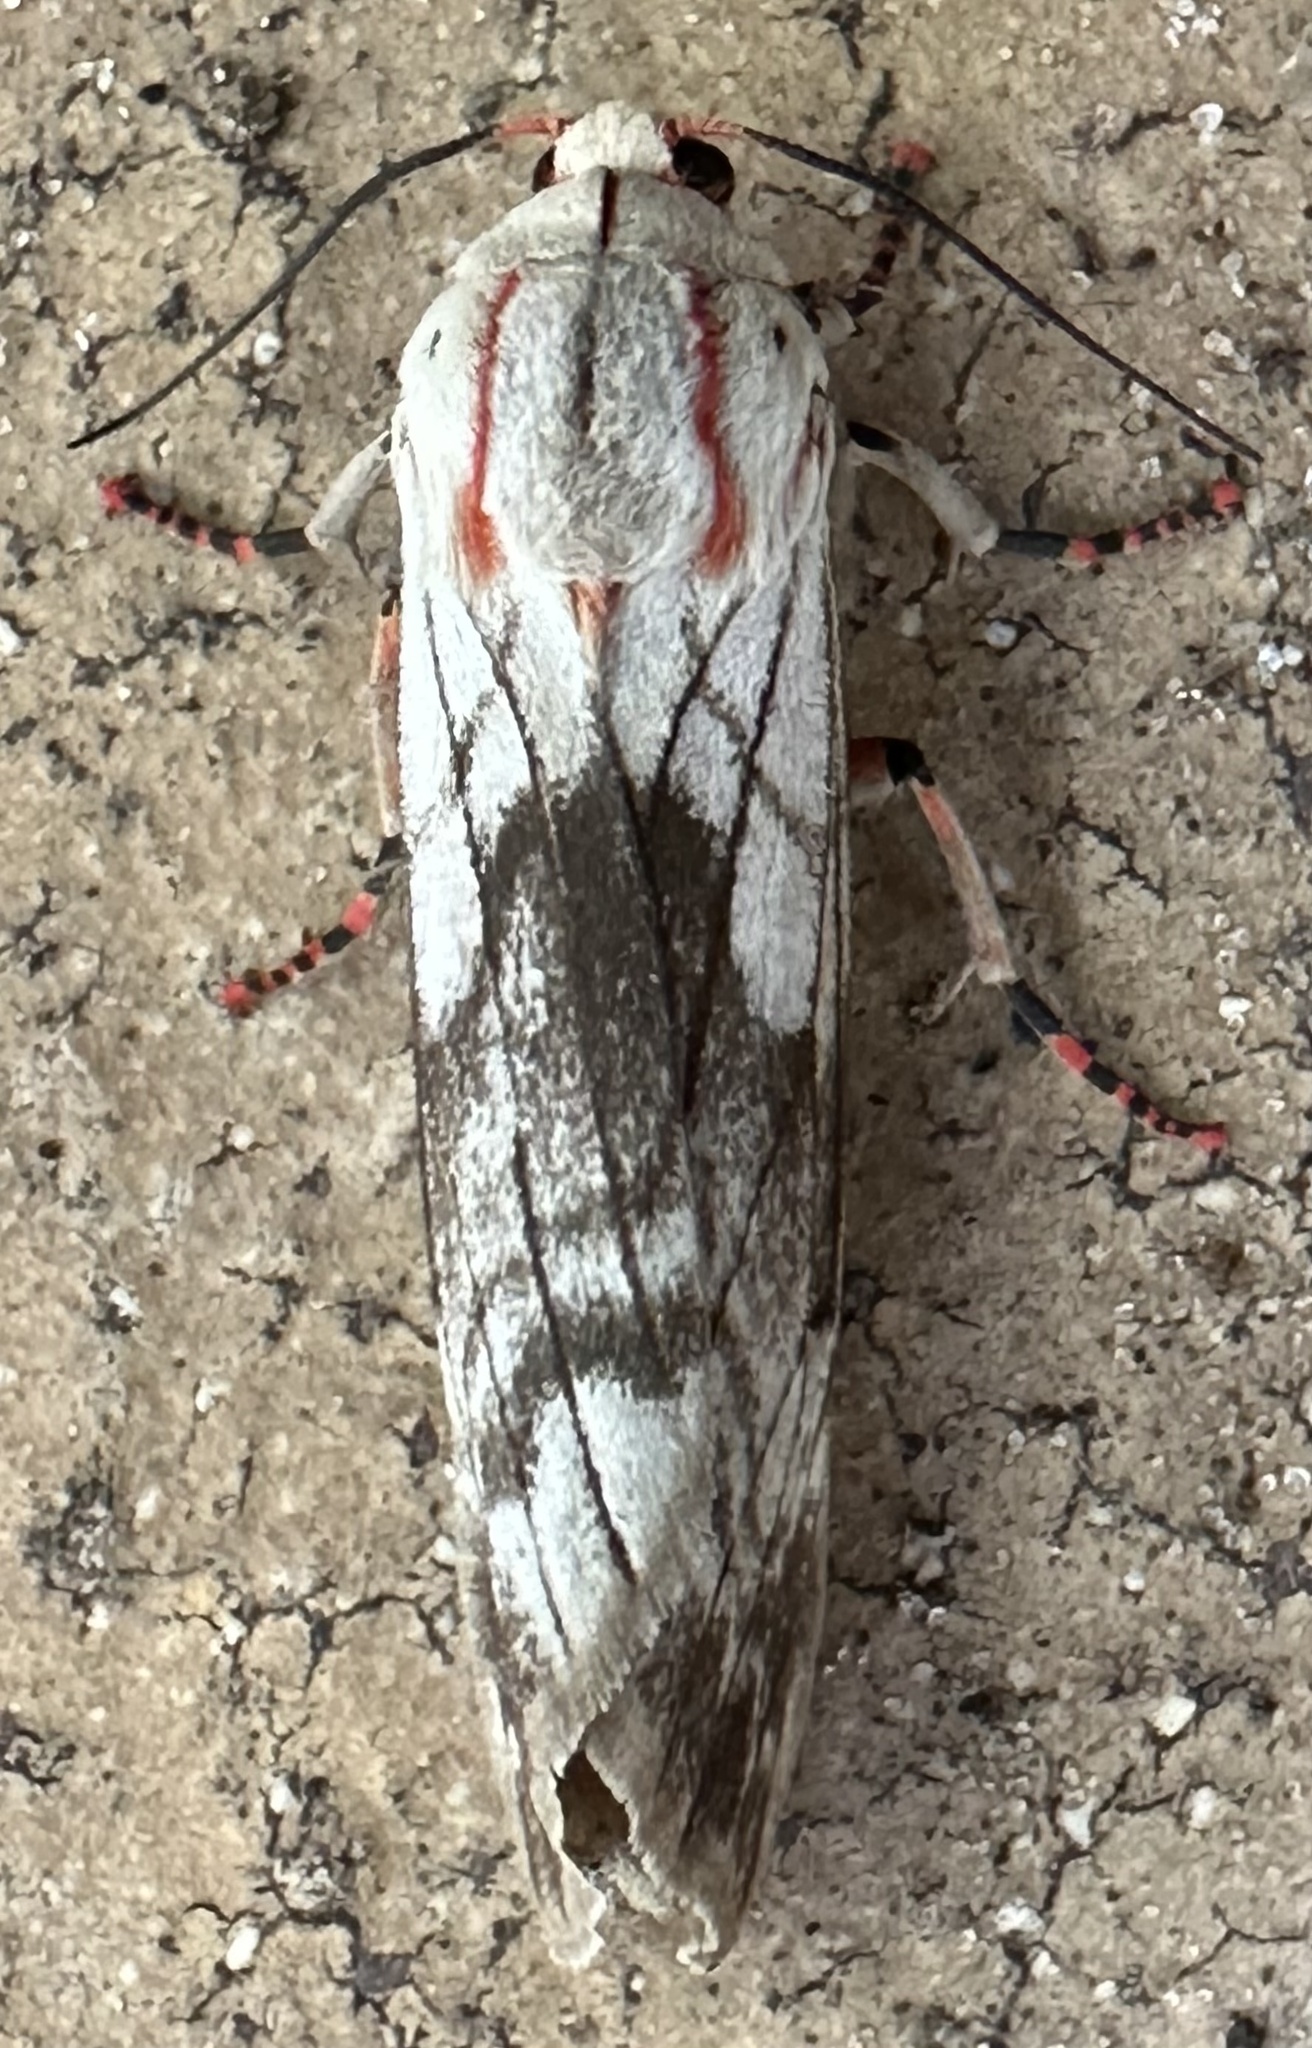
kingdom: Animalia
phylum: Arthropoda
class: Insecta
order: Lepidoptera
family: Erebidae
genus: Teracotona
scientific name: Teracotona rhodophaea
